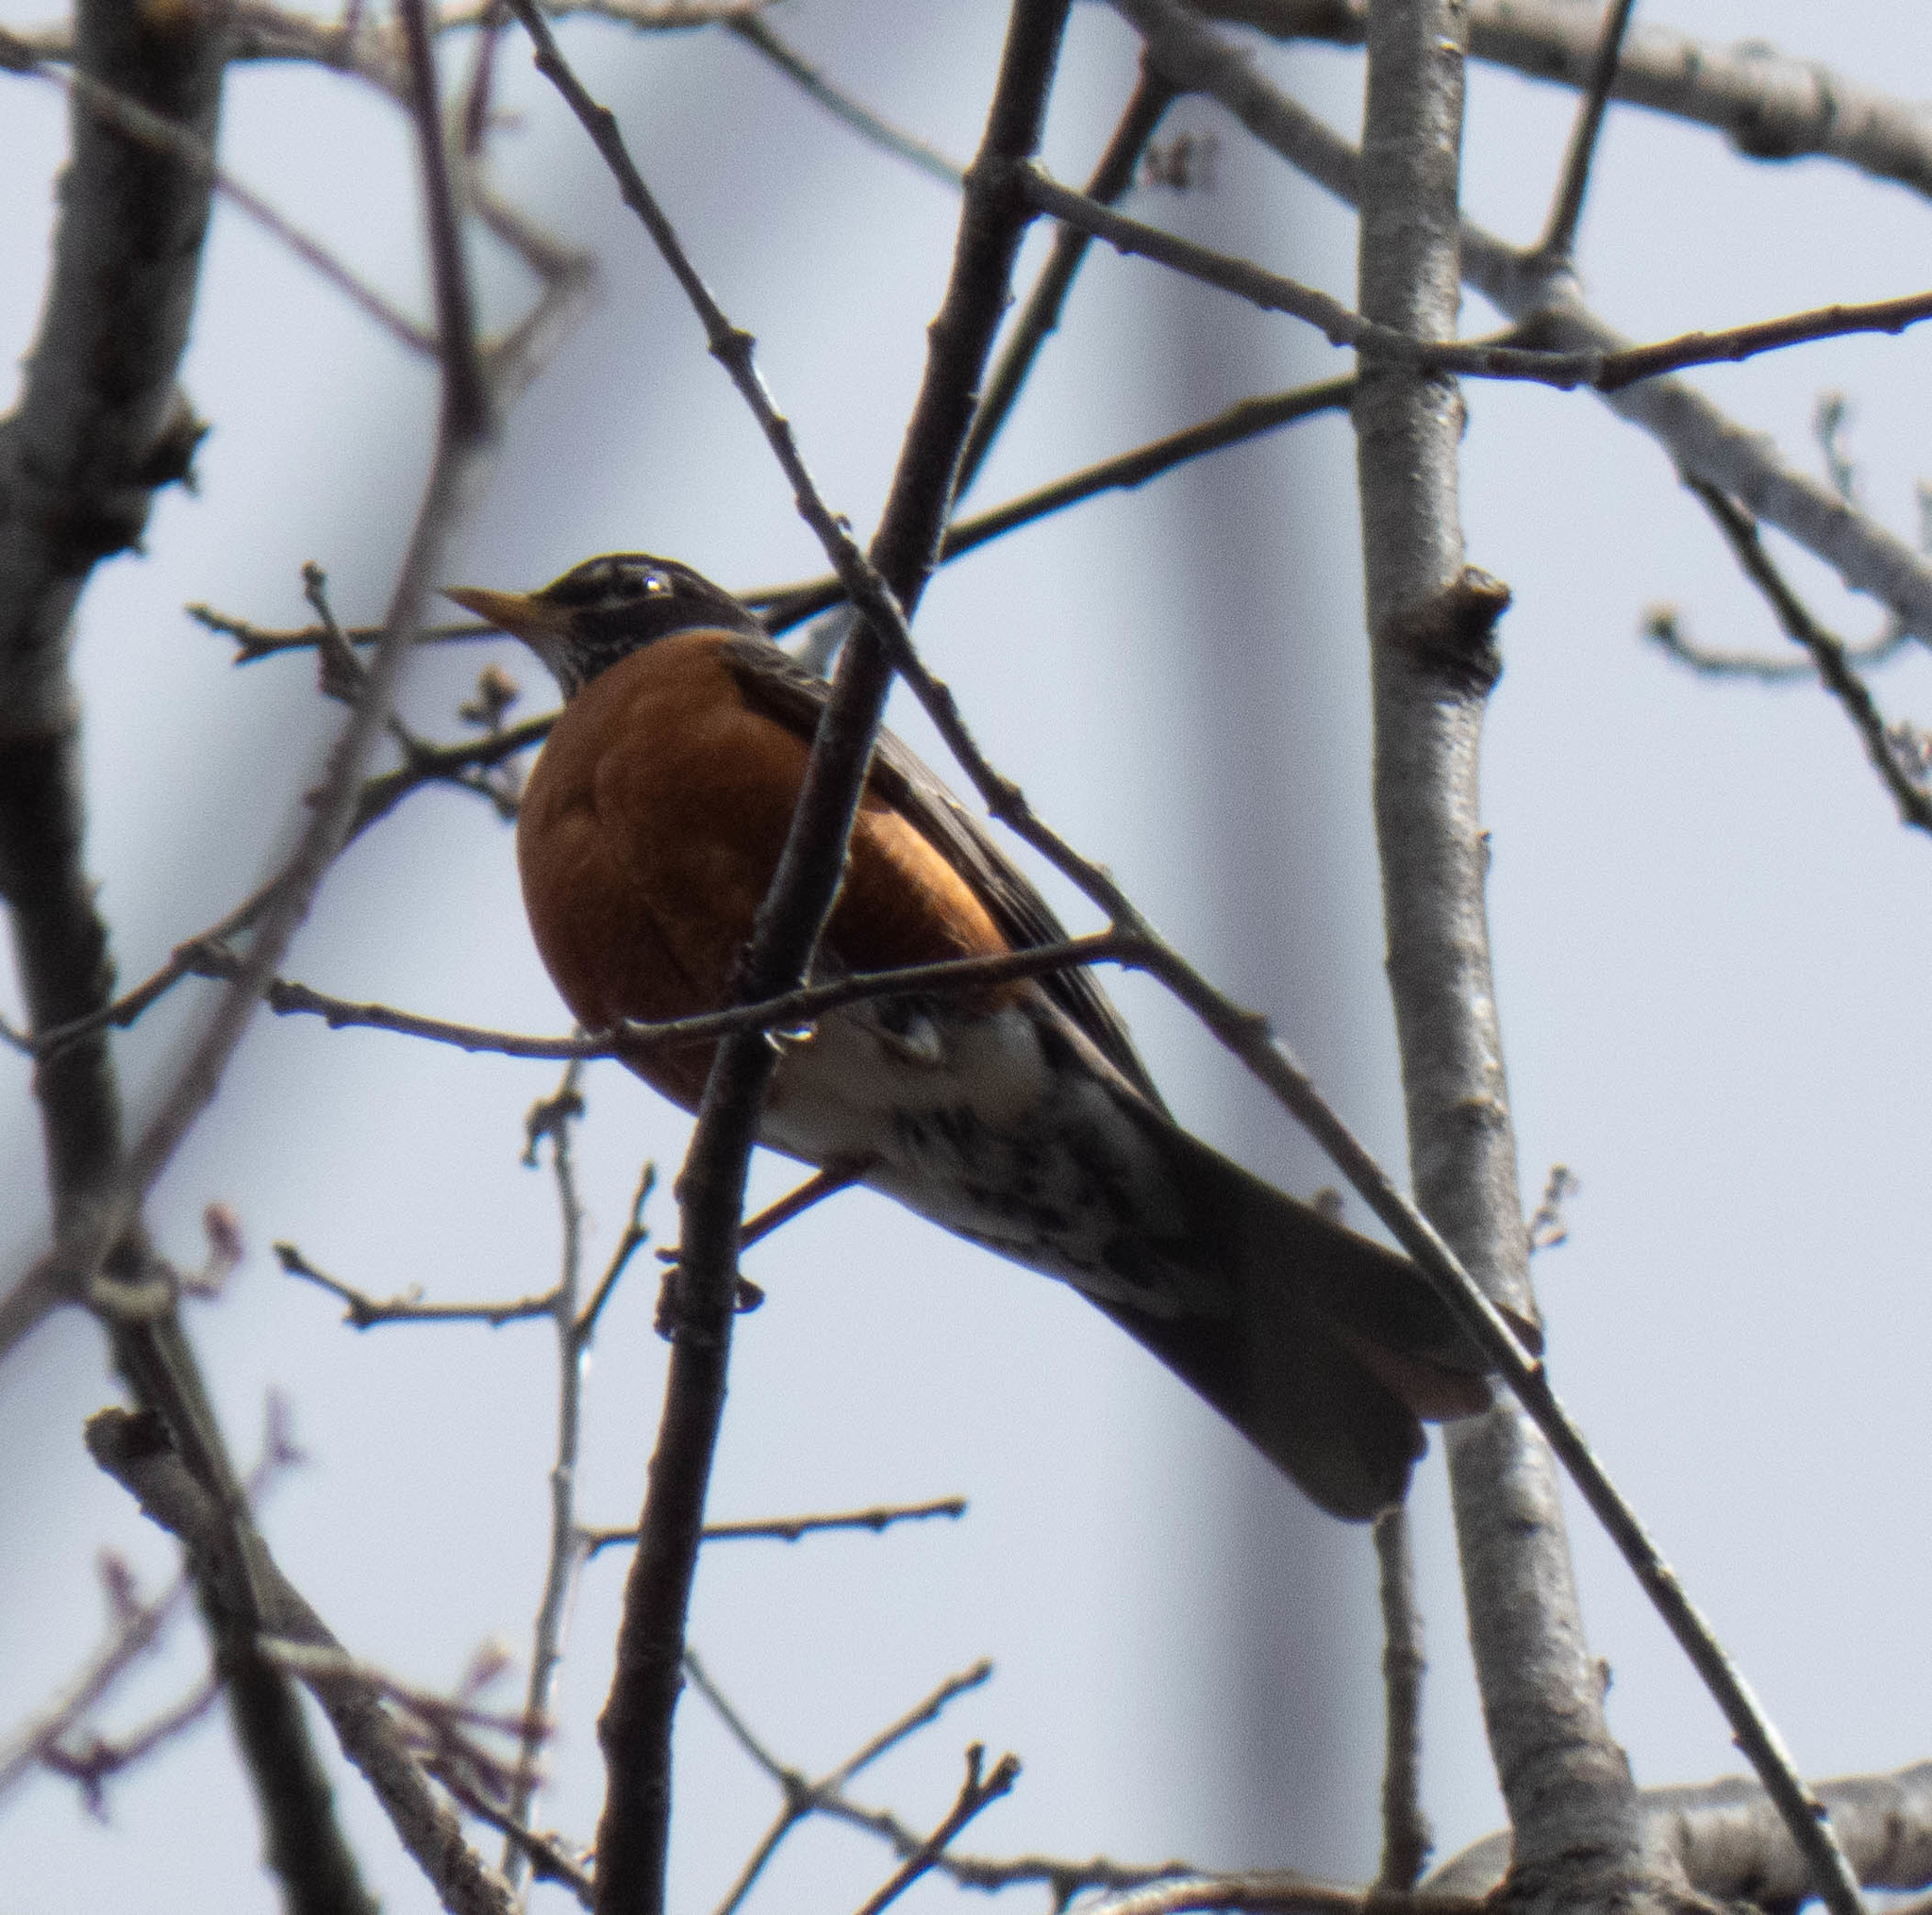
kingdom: Animalia
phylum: Chordata
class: Aves
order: Passeriformes
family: Turdidae
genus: Turdus
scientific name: Turdus migratorius
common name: American robin
